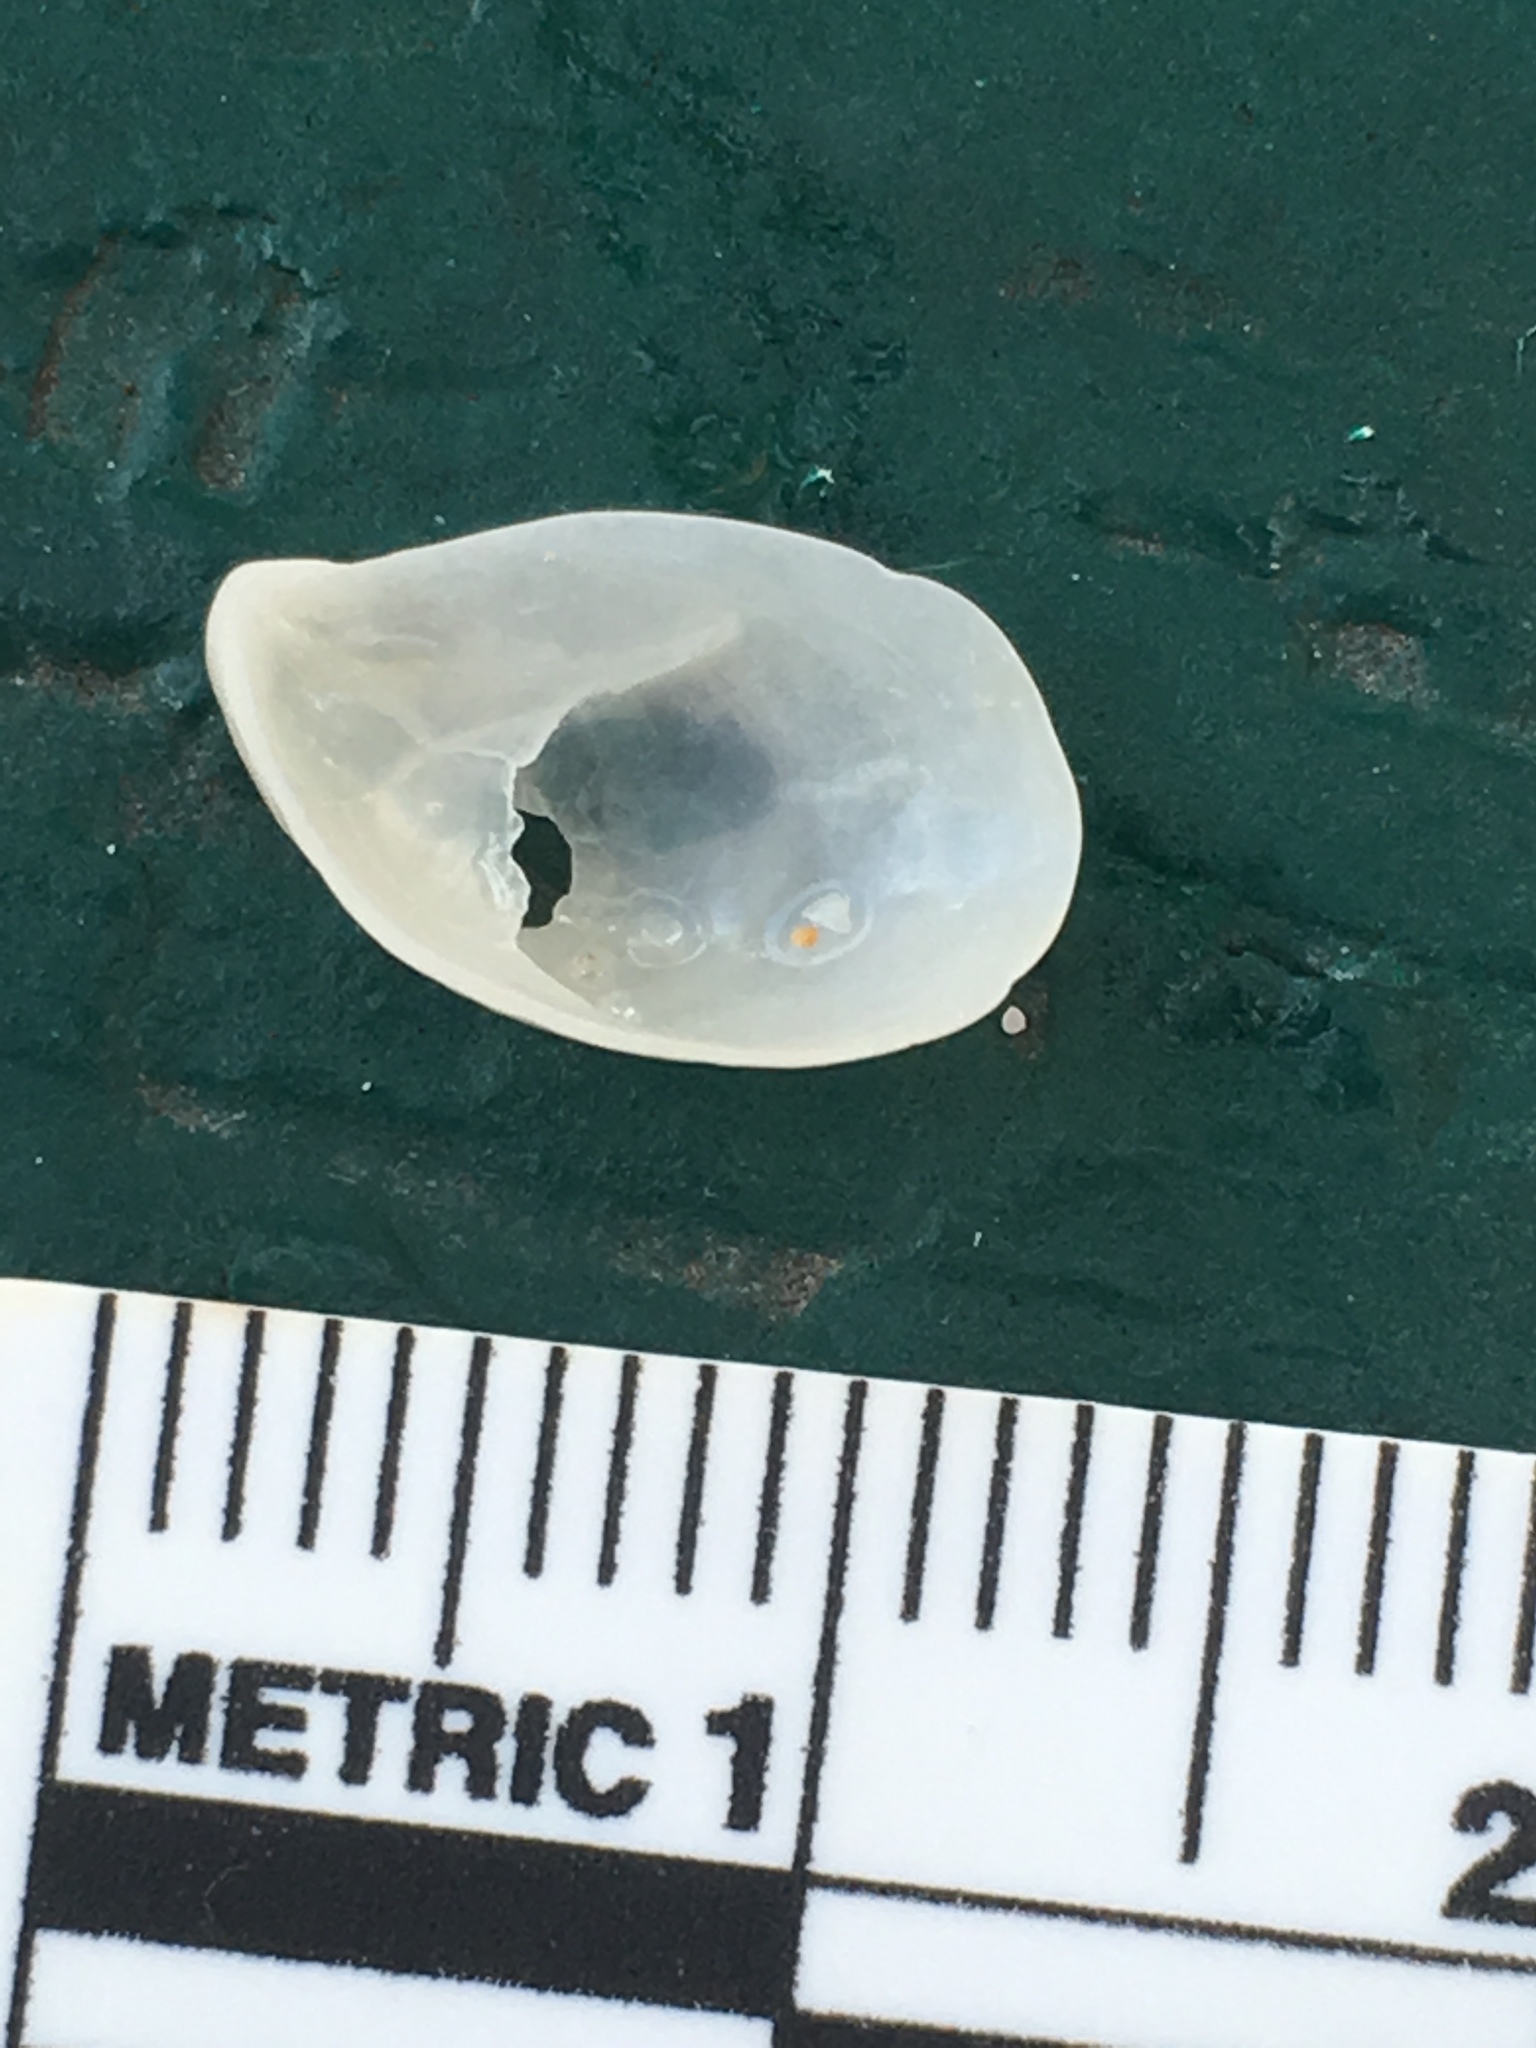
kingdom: Animalia
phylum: Mollusca
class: Gastropoda
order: Littorinimorpha
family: Calyptraeidae
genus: Crepidula
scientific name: Crepidula maculosa
